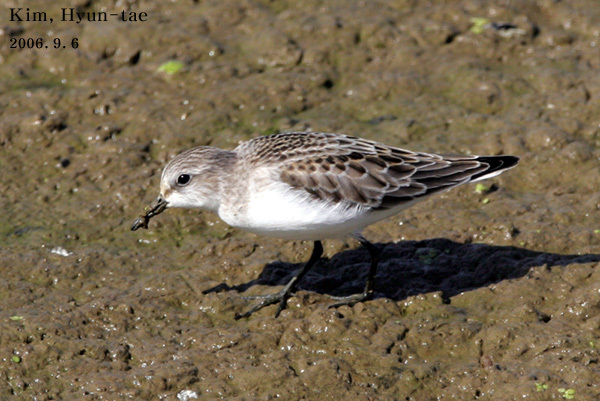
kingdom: Animalia
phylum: Chordata
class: Aves
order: Charadriiformes
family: Scolopacidae
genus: Calidris
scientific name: Calidris ruficollis
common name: Red-necked stint
